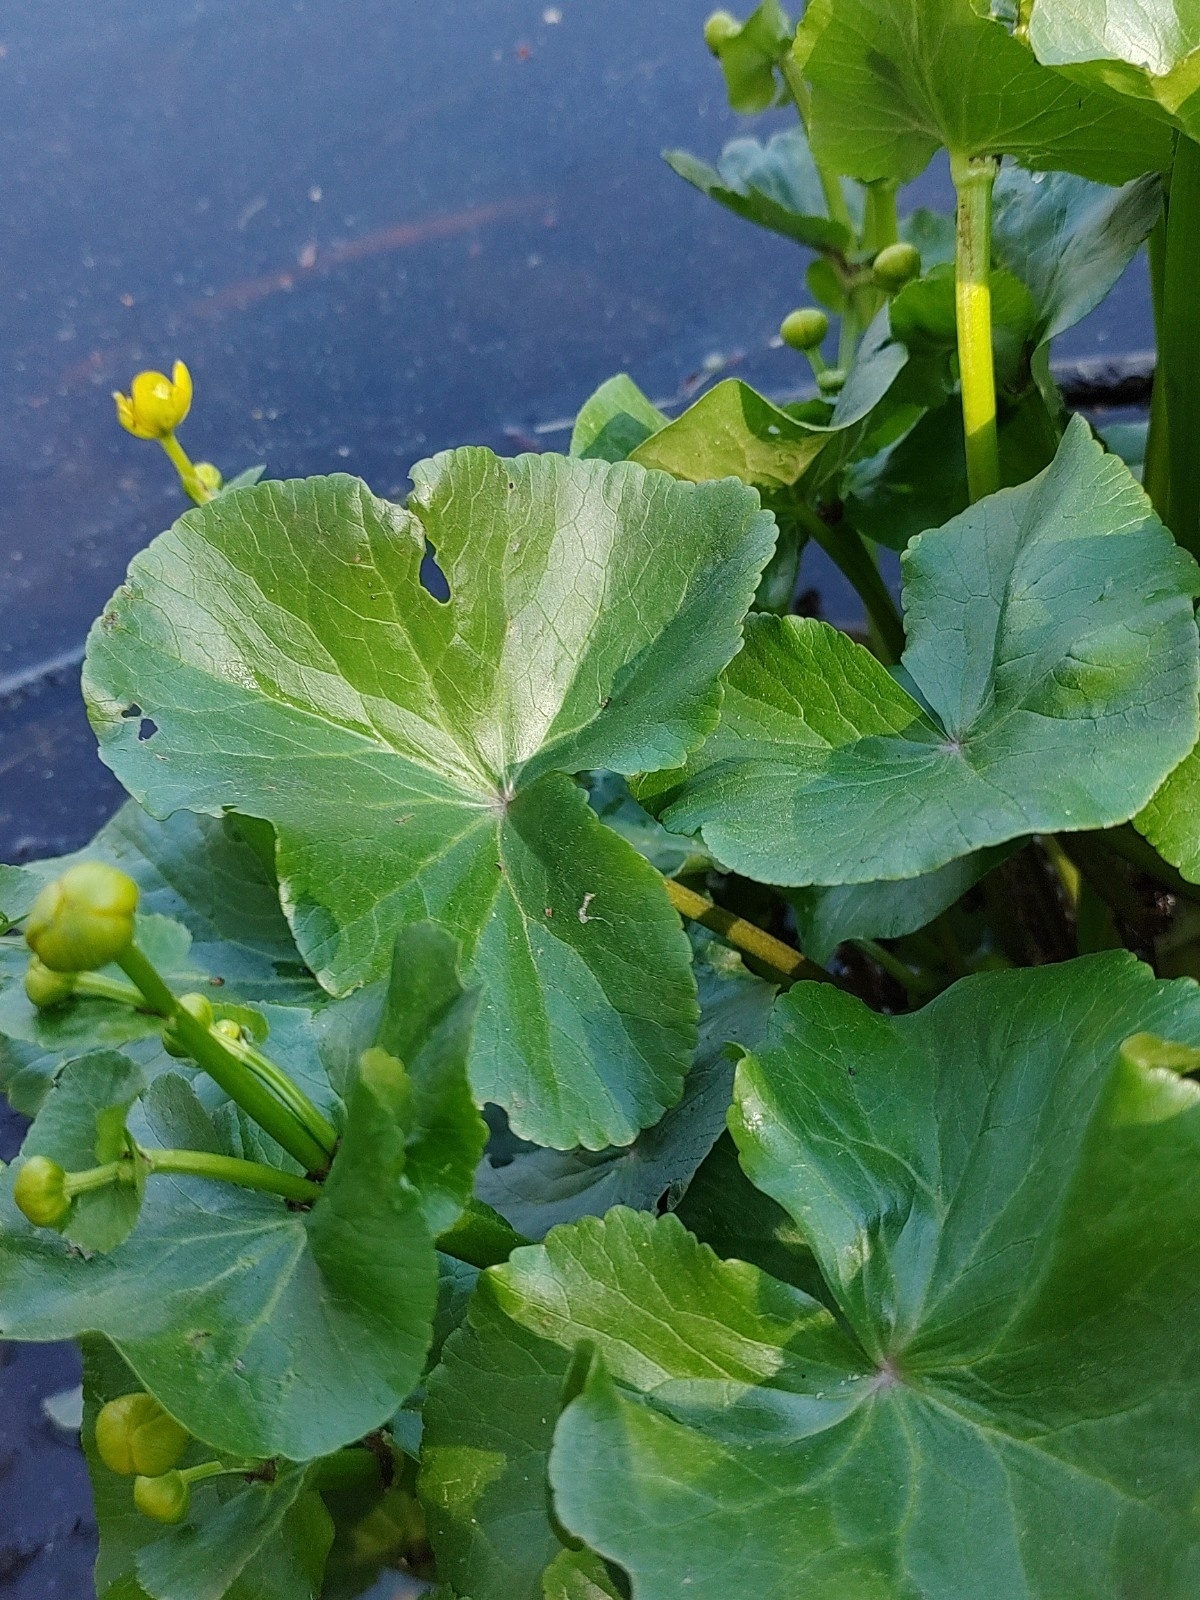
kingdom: Plantae
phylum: Tracheophyta
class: Magnoliopsida
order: Ranunculales
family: Ranunculaceae
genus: Caltha
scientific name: Caltha palustris
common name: Marsh marigold
